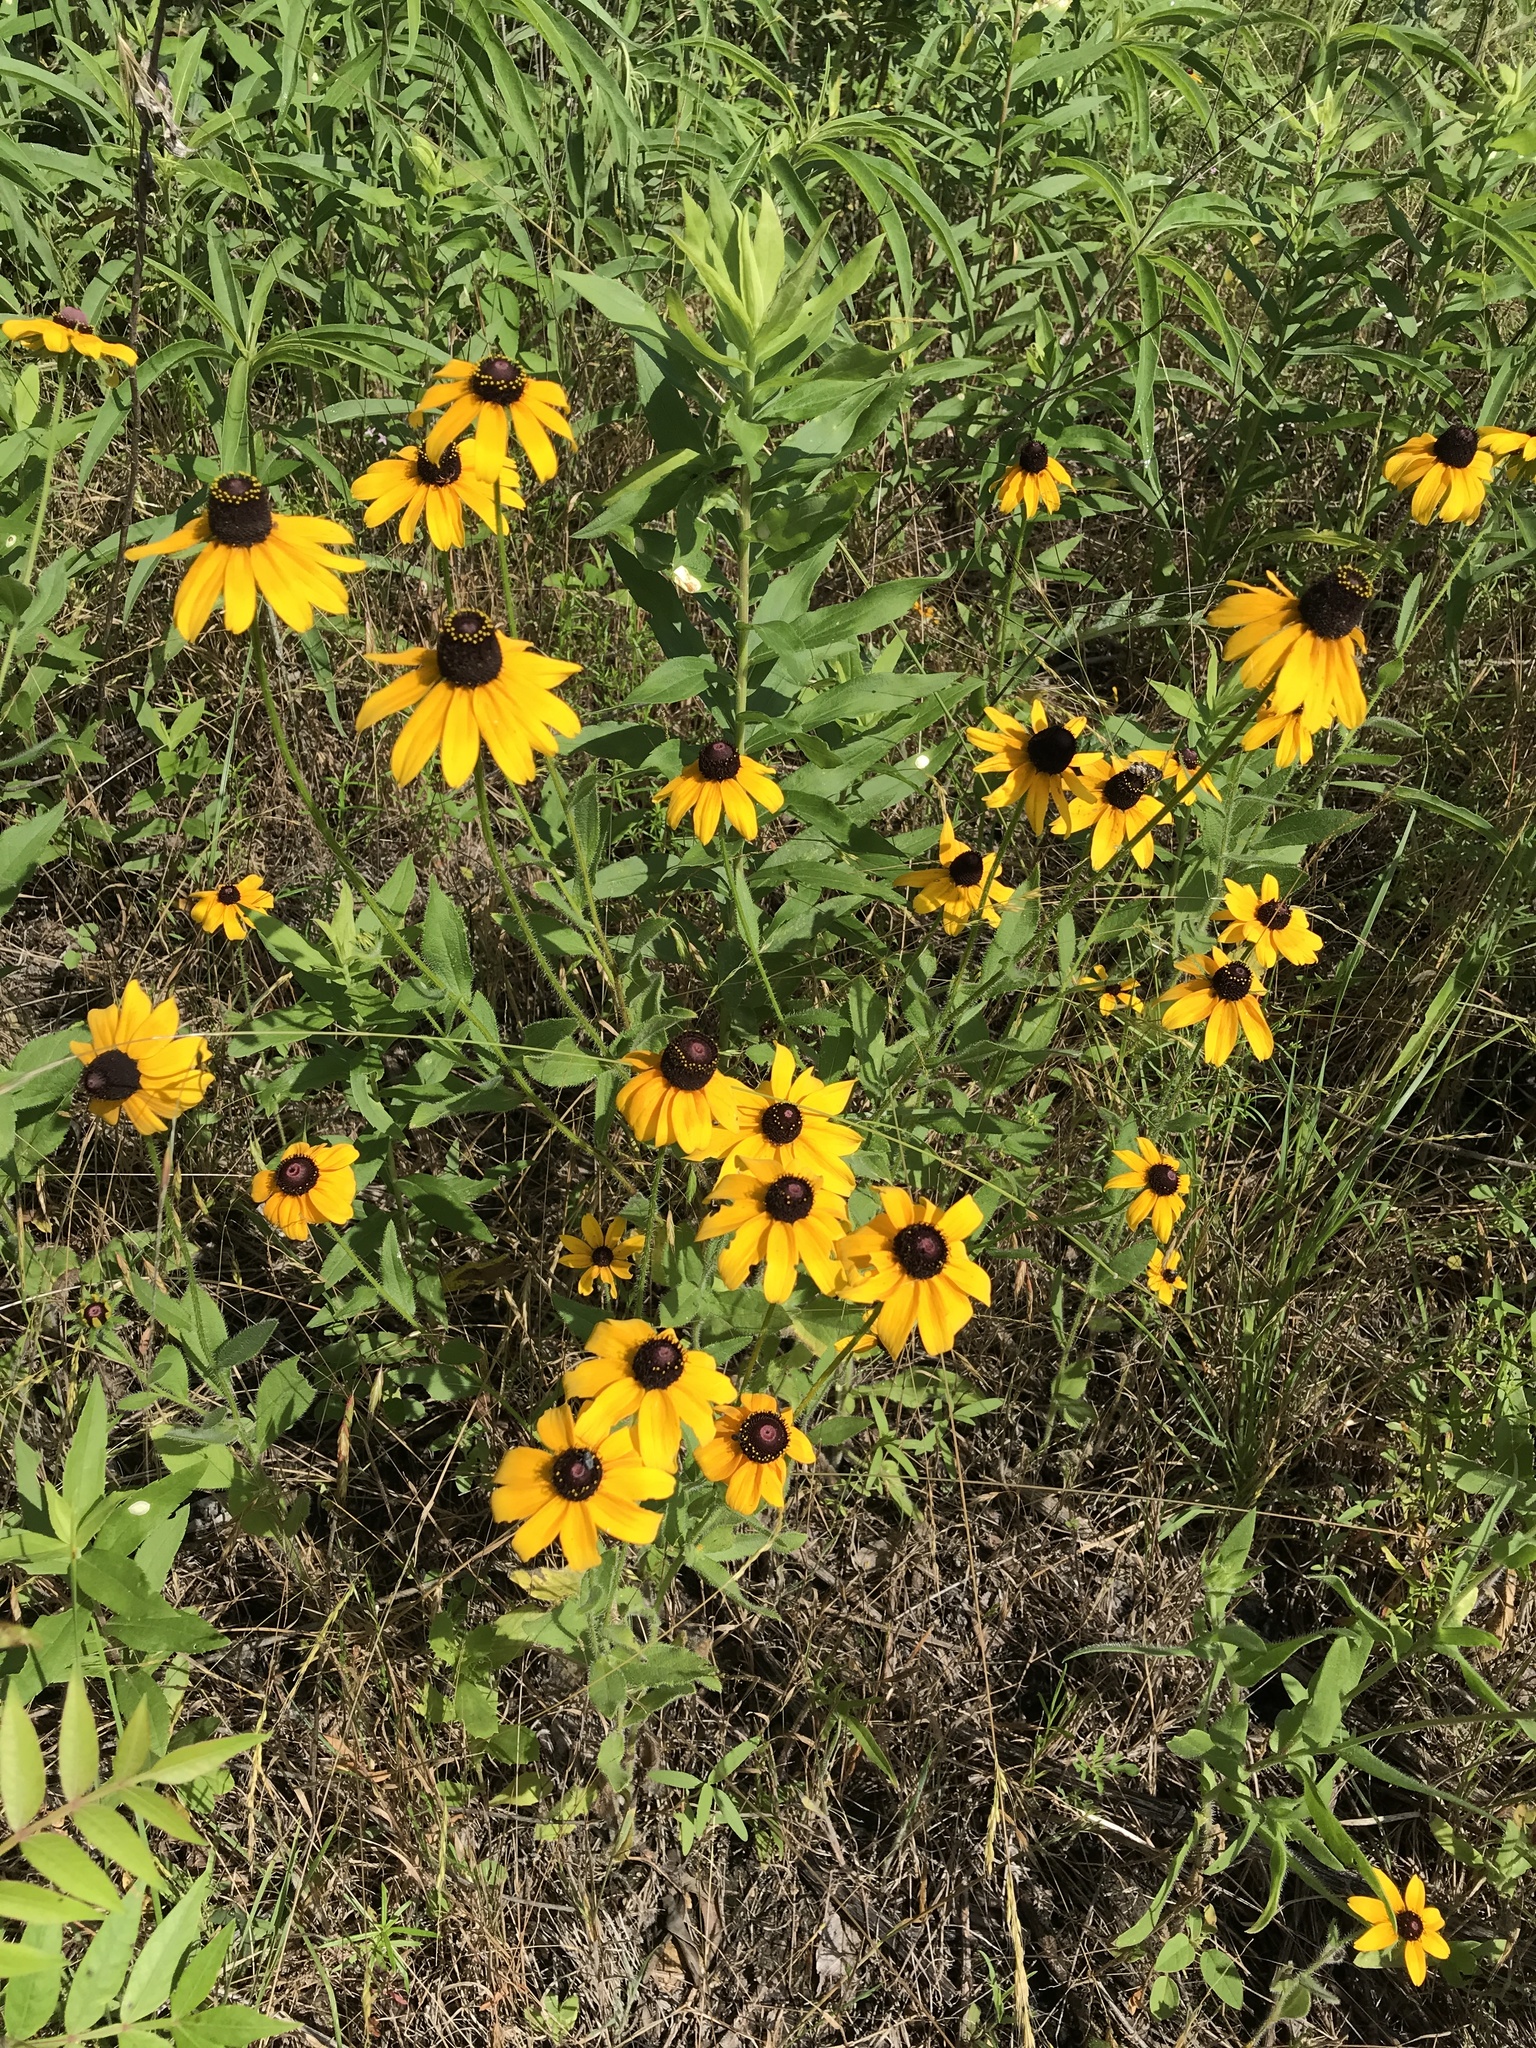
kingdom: Plantae
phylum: Tracheophyta
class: Magnoliopsida
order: Asterales
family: Asteraceae
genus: Rudbeckia
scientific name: Rudbeckia hirta
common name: Black-eyed-susan
